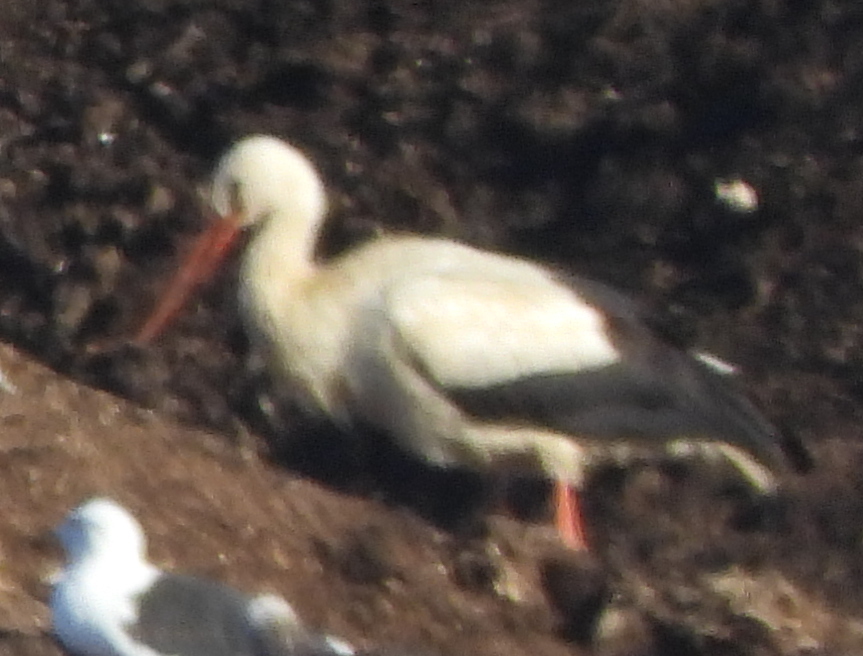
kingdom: Animalia
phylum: Chordata
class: Aves
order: Ciconiiformes
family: Ciconiidae
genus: Ciconia
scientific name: Ciconia ciconia
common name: White stork
